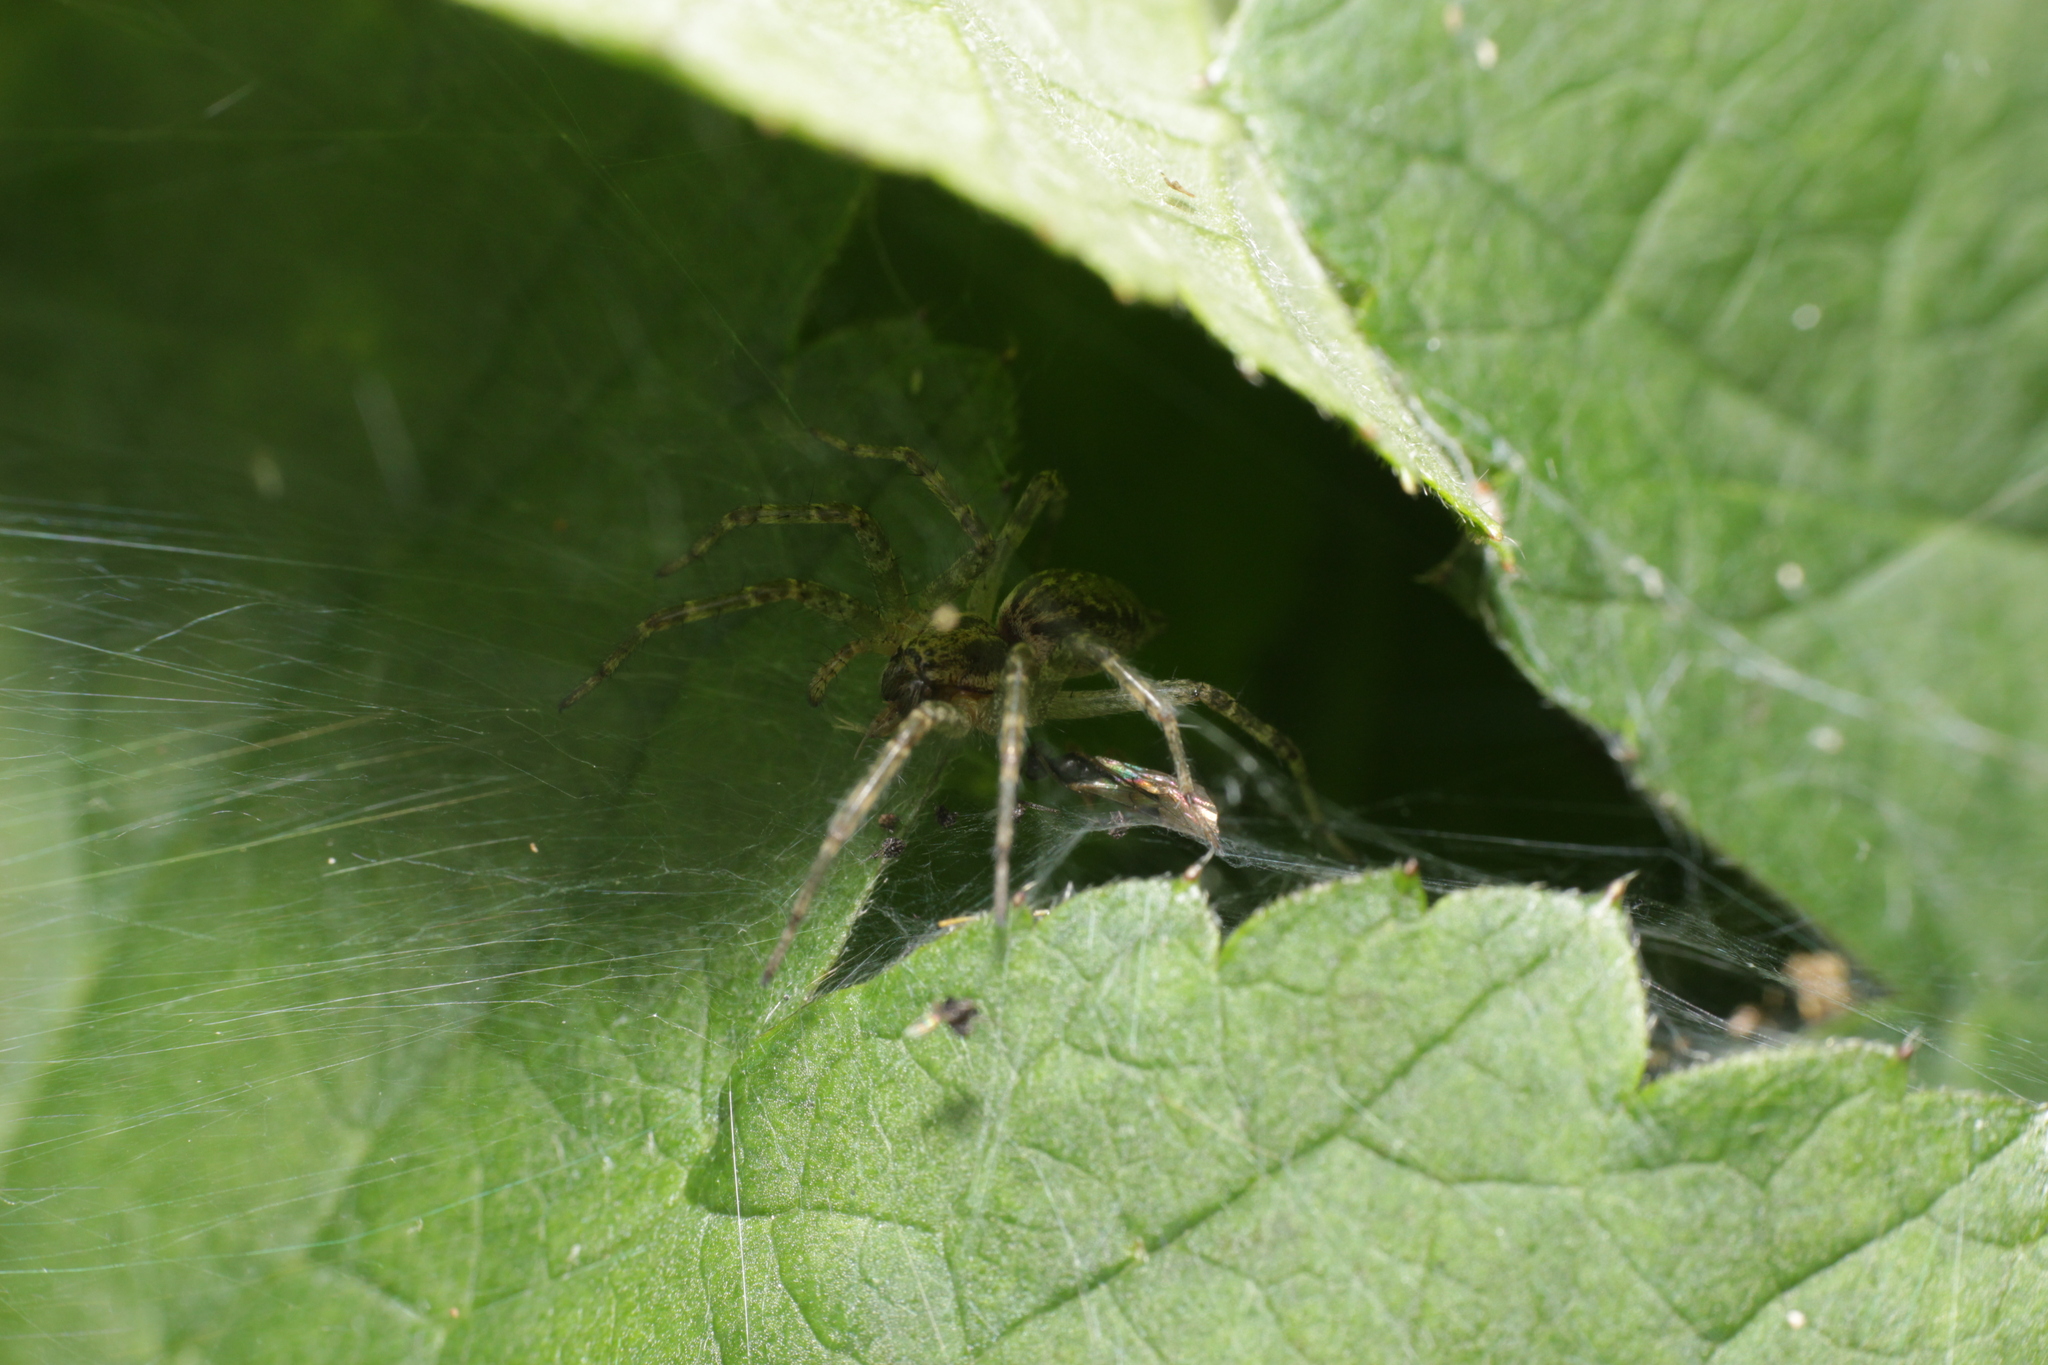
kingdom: Animalia
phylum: Arthropoda
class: Arachnida
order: Araneae
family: Agelenidae
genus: Allagelena
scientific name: Allagelena gracilens
